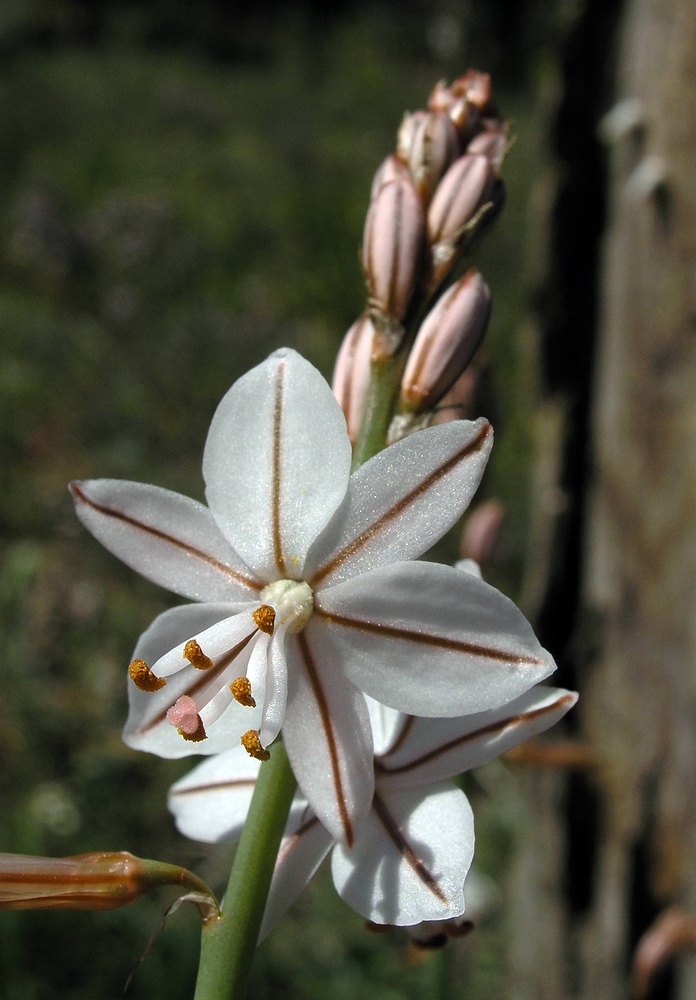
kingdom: Plantae
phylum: Tracheophyta
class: Liliopsida
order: Asparagales
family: Asphodelaceae
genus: Asphodelus
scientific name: Asphodelus fistulosus
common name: Onionweed
